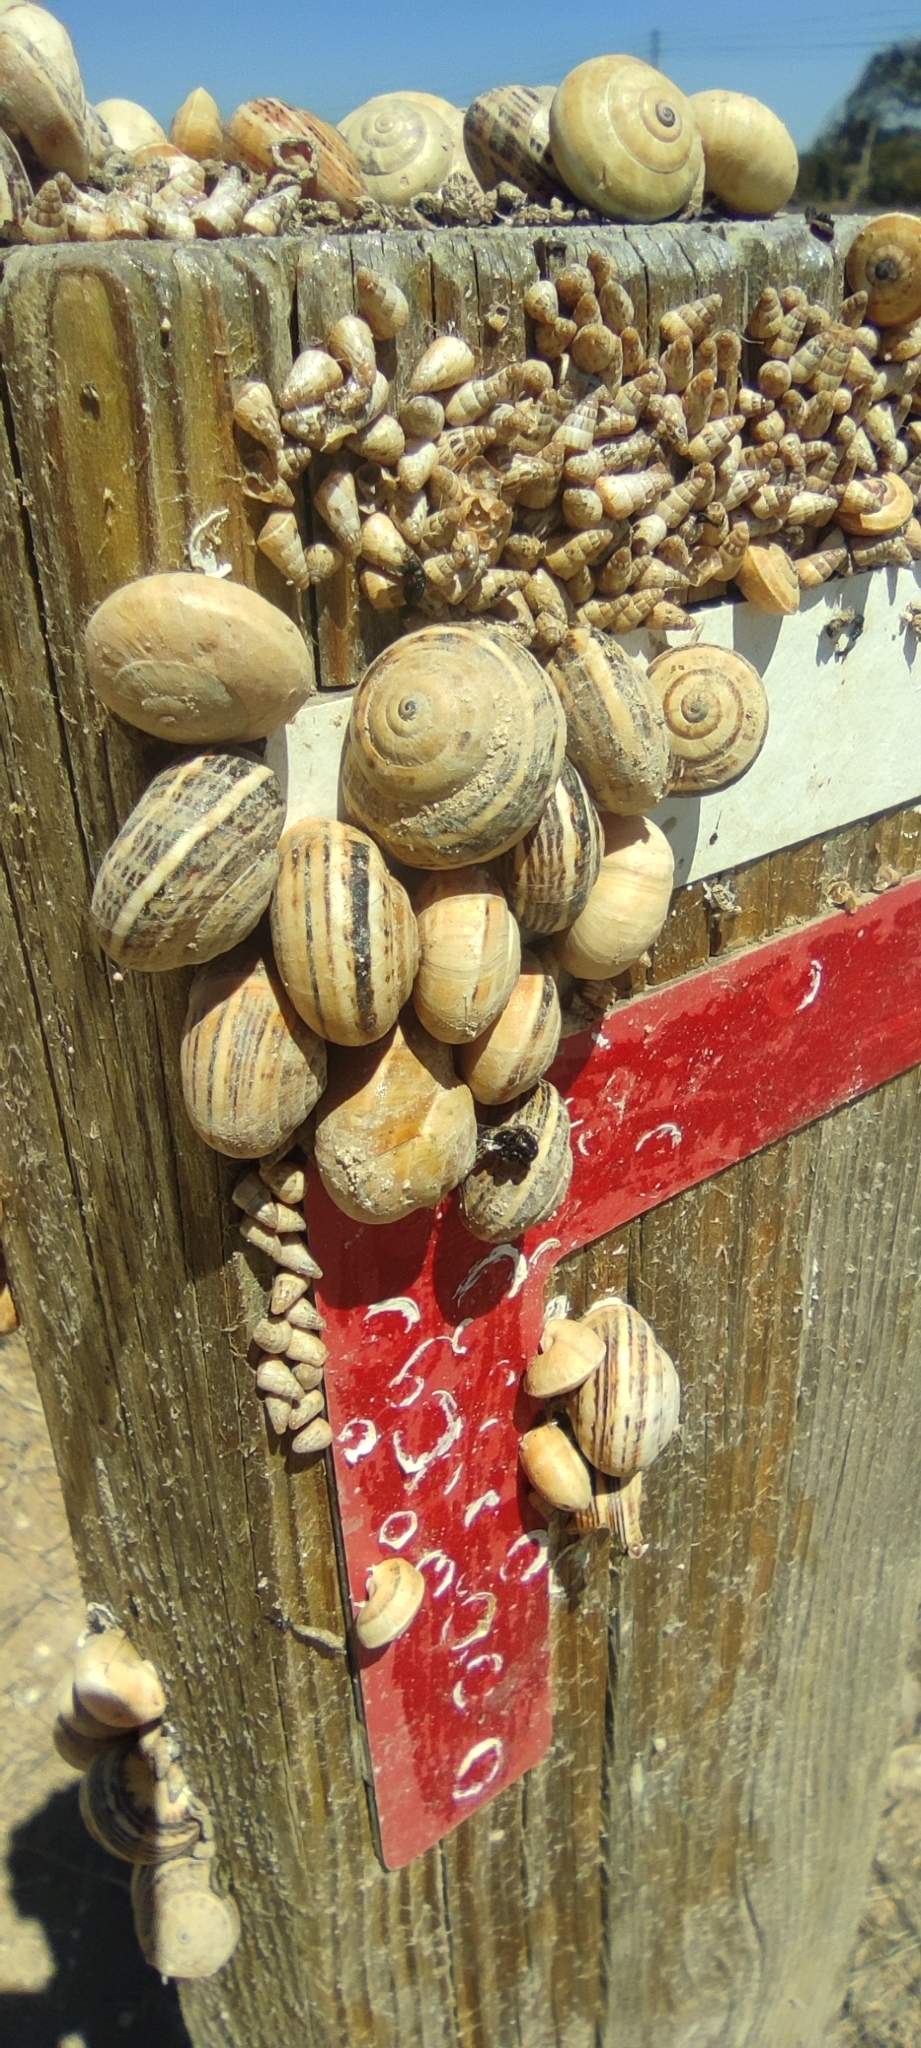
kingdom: Animalia
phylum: Mollusca
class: Gastropoda
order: Stylommatophora
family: Helicidae
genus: Theba
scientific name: Theba pisana
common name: White snail
